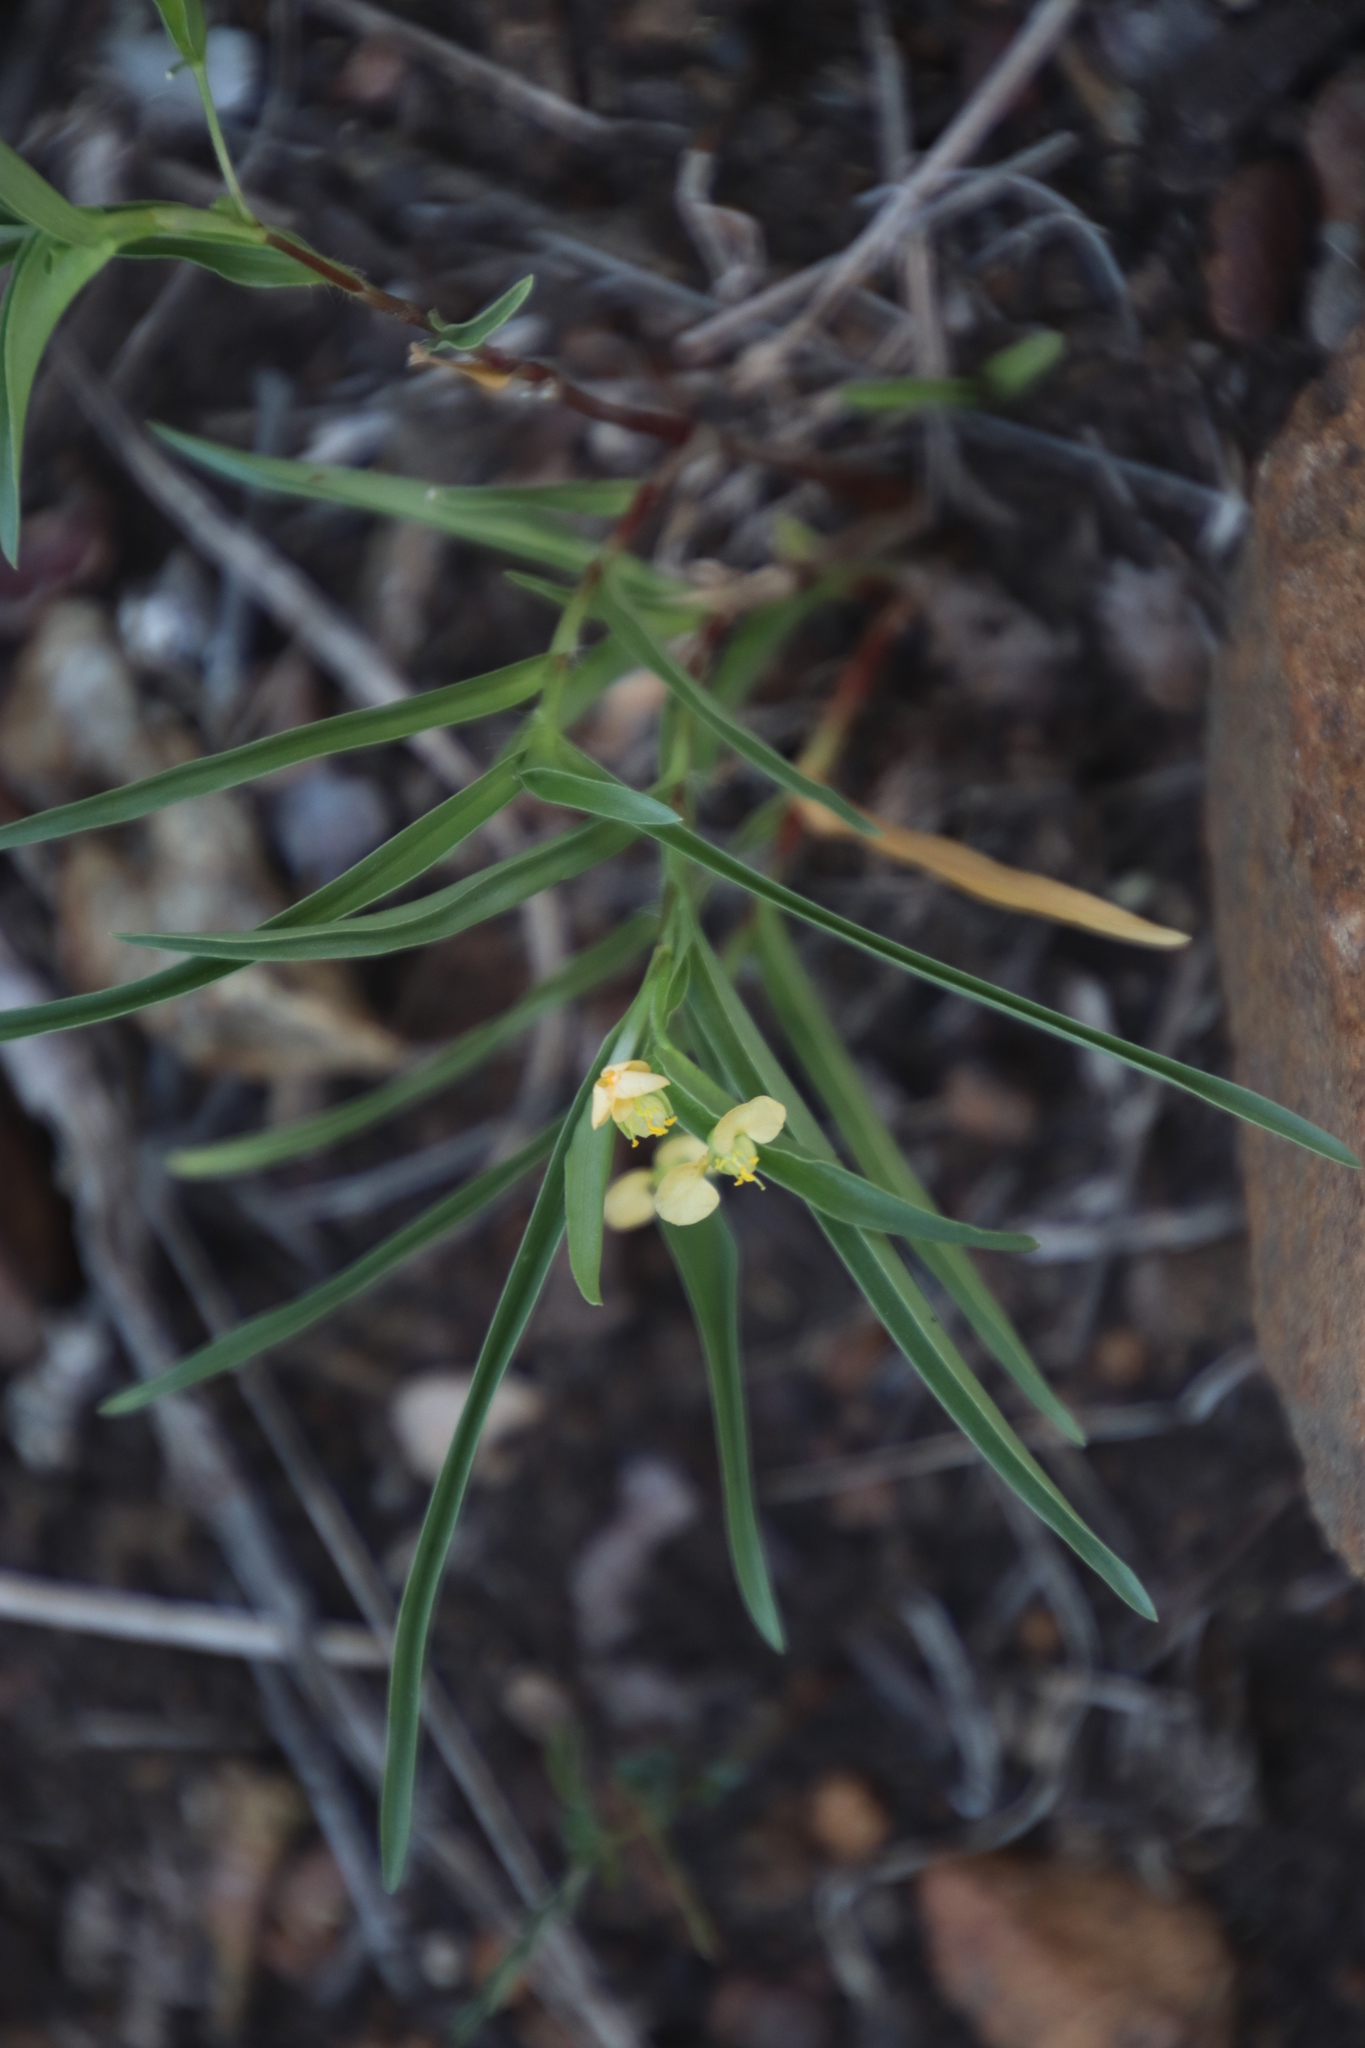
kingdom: Plantae
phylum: Tracheophyta
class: Liliopsida
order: Commelinales
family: Commelinaceae
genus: Commelina
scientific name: Commelina africana
